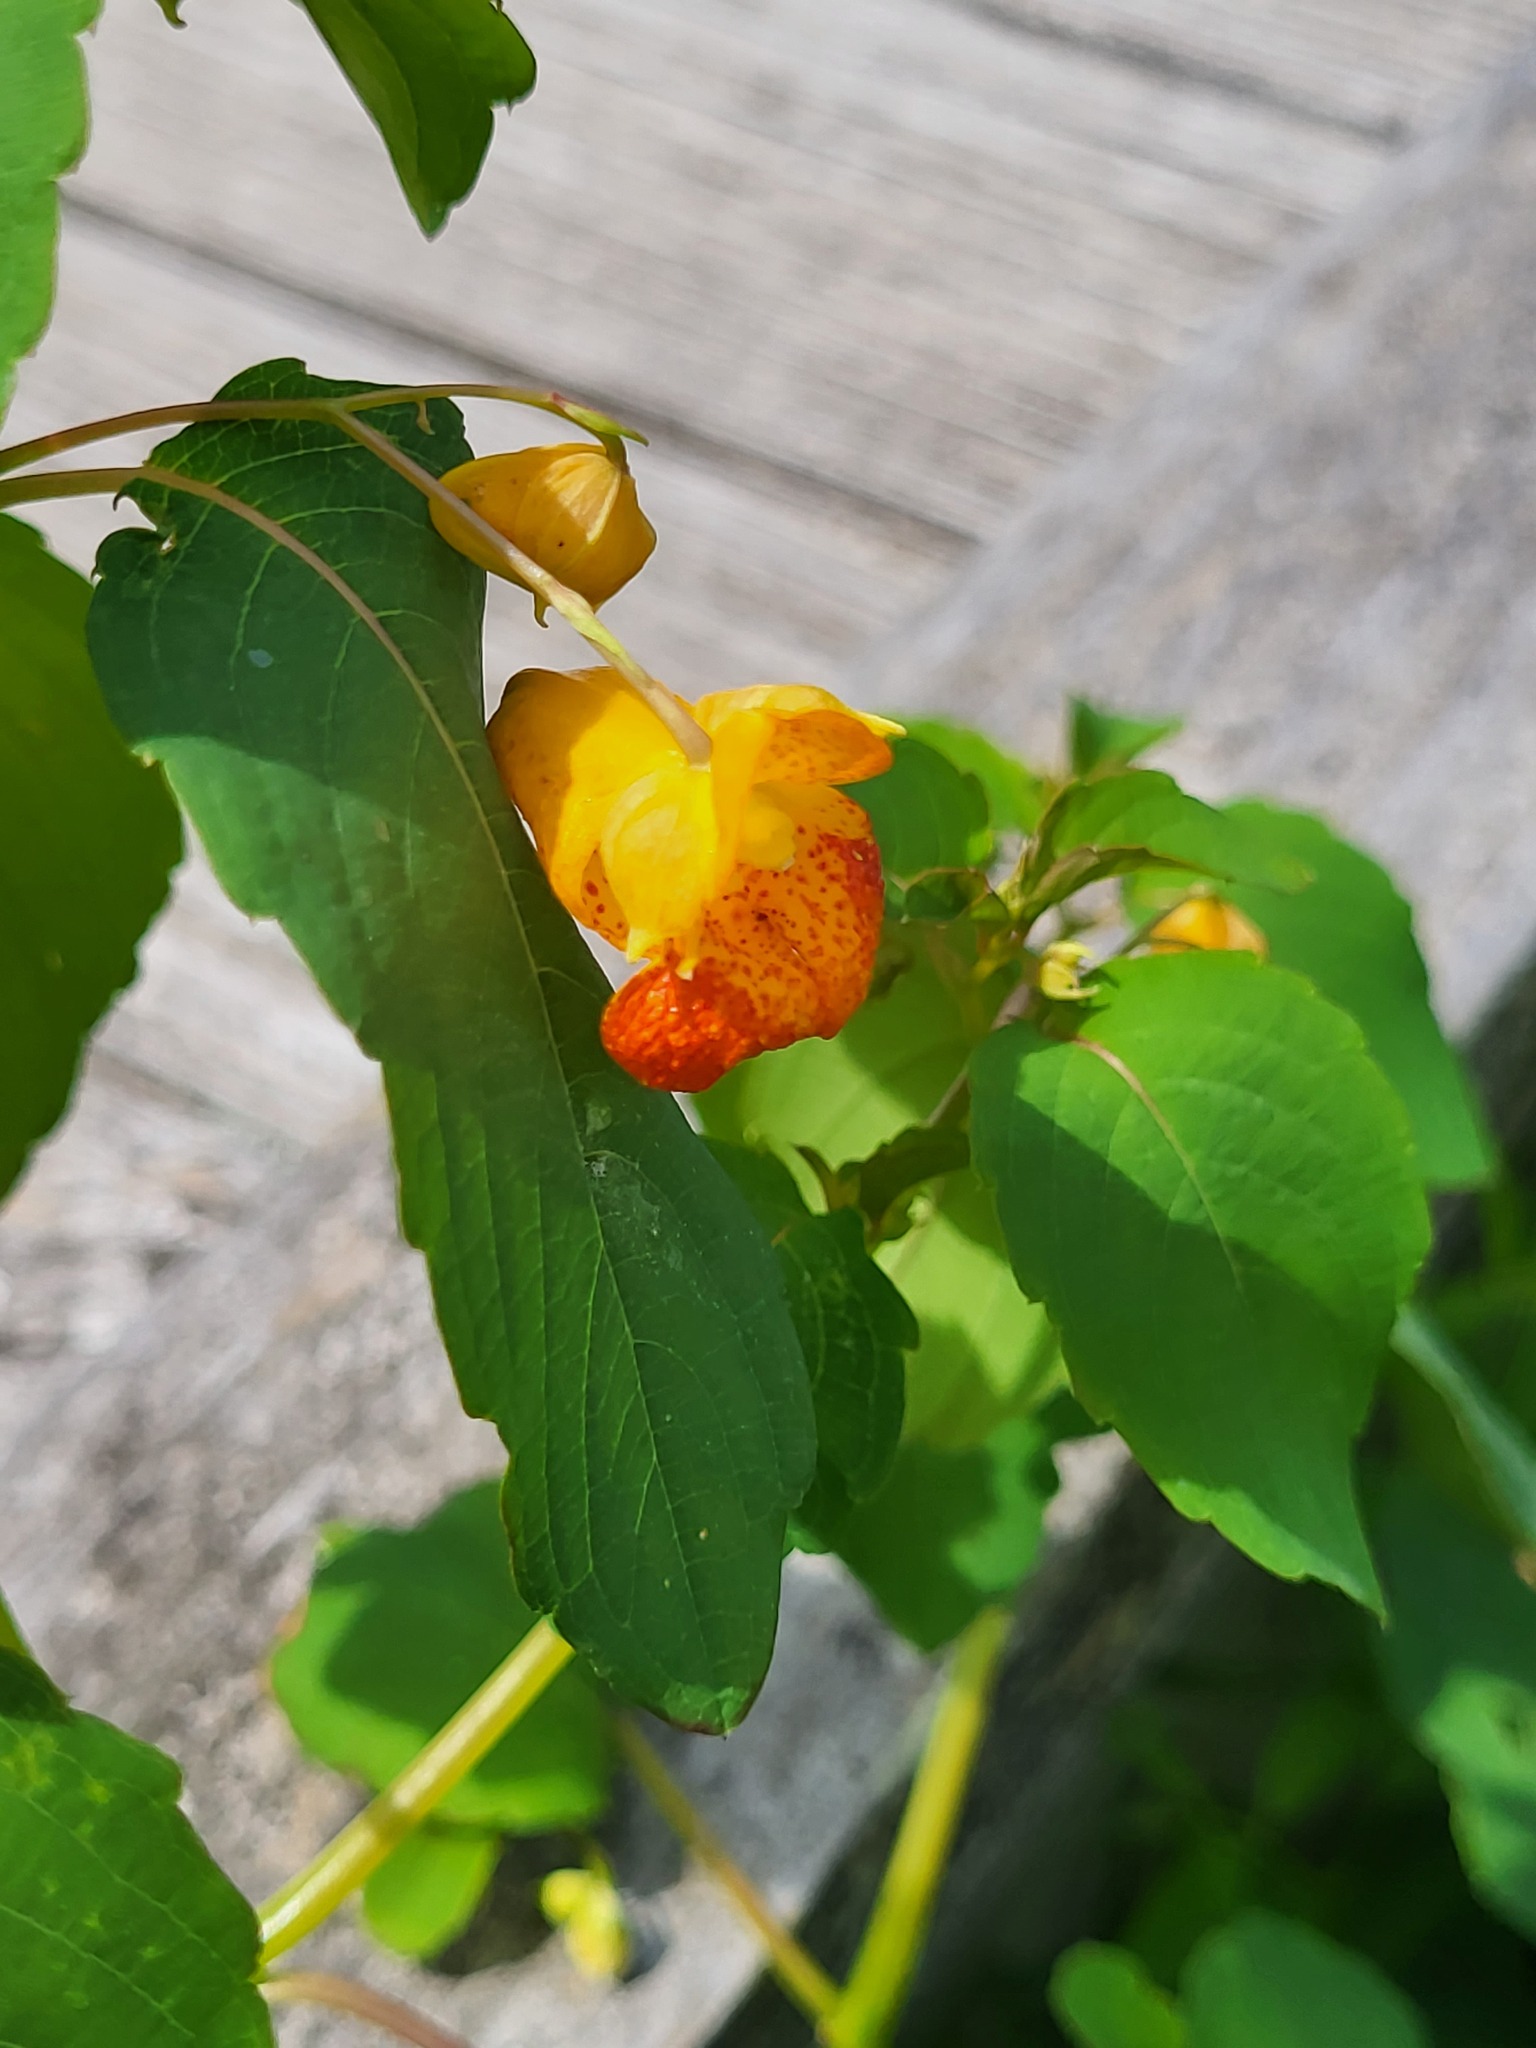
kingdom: Plantae
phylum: Tracheophyta
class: Magnoliopsida
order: Ericales
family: Balsaminaceae
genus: Impatiens
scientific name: Impatiens capensis
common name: Orange balsam
